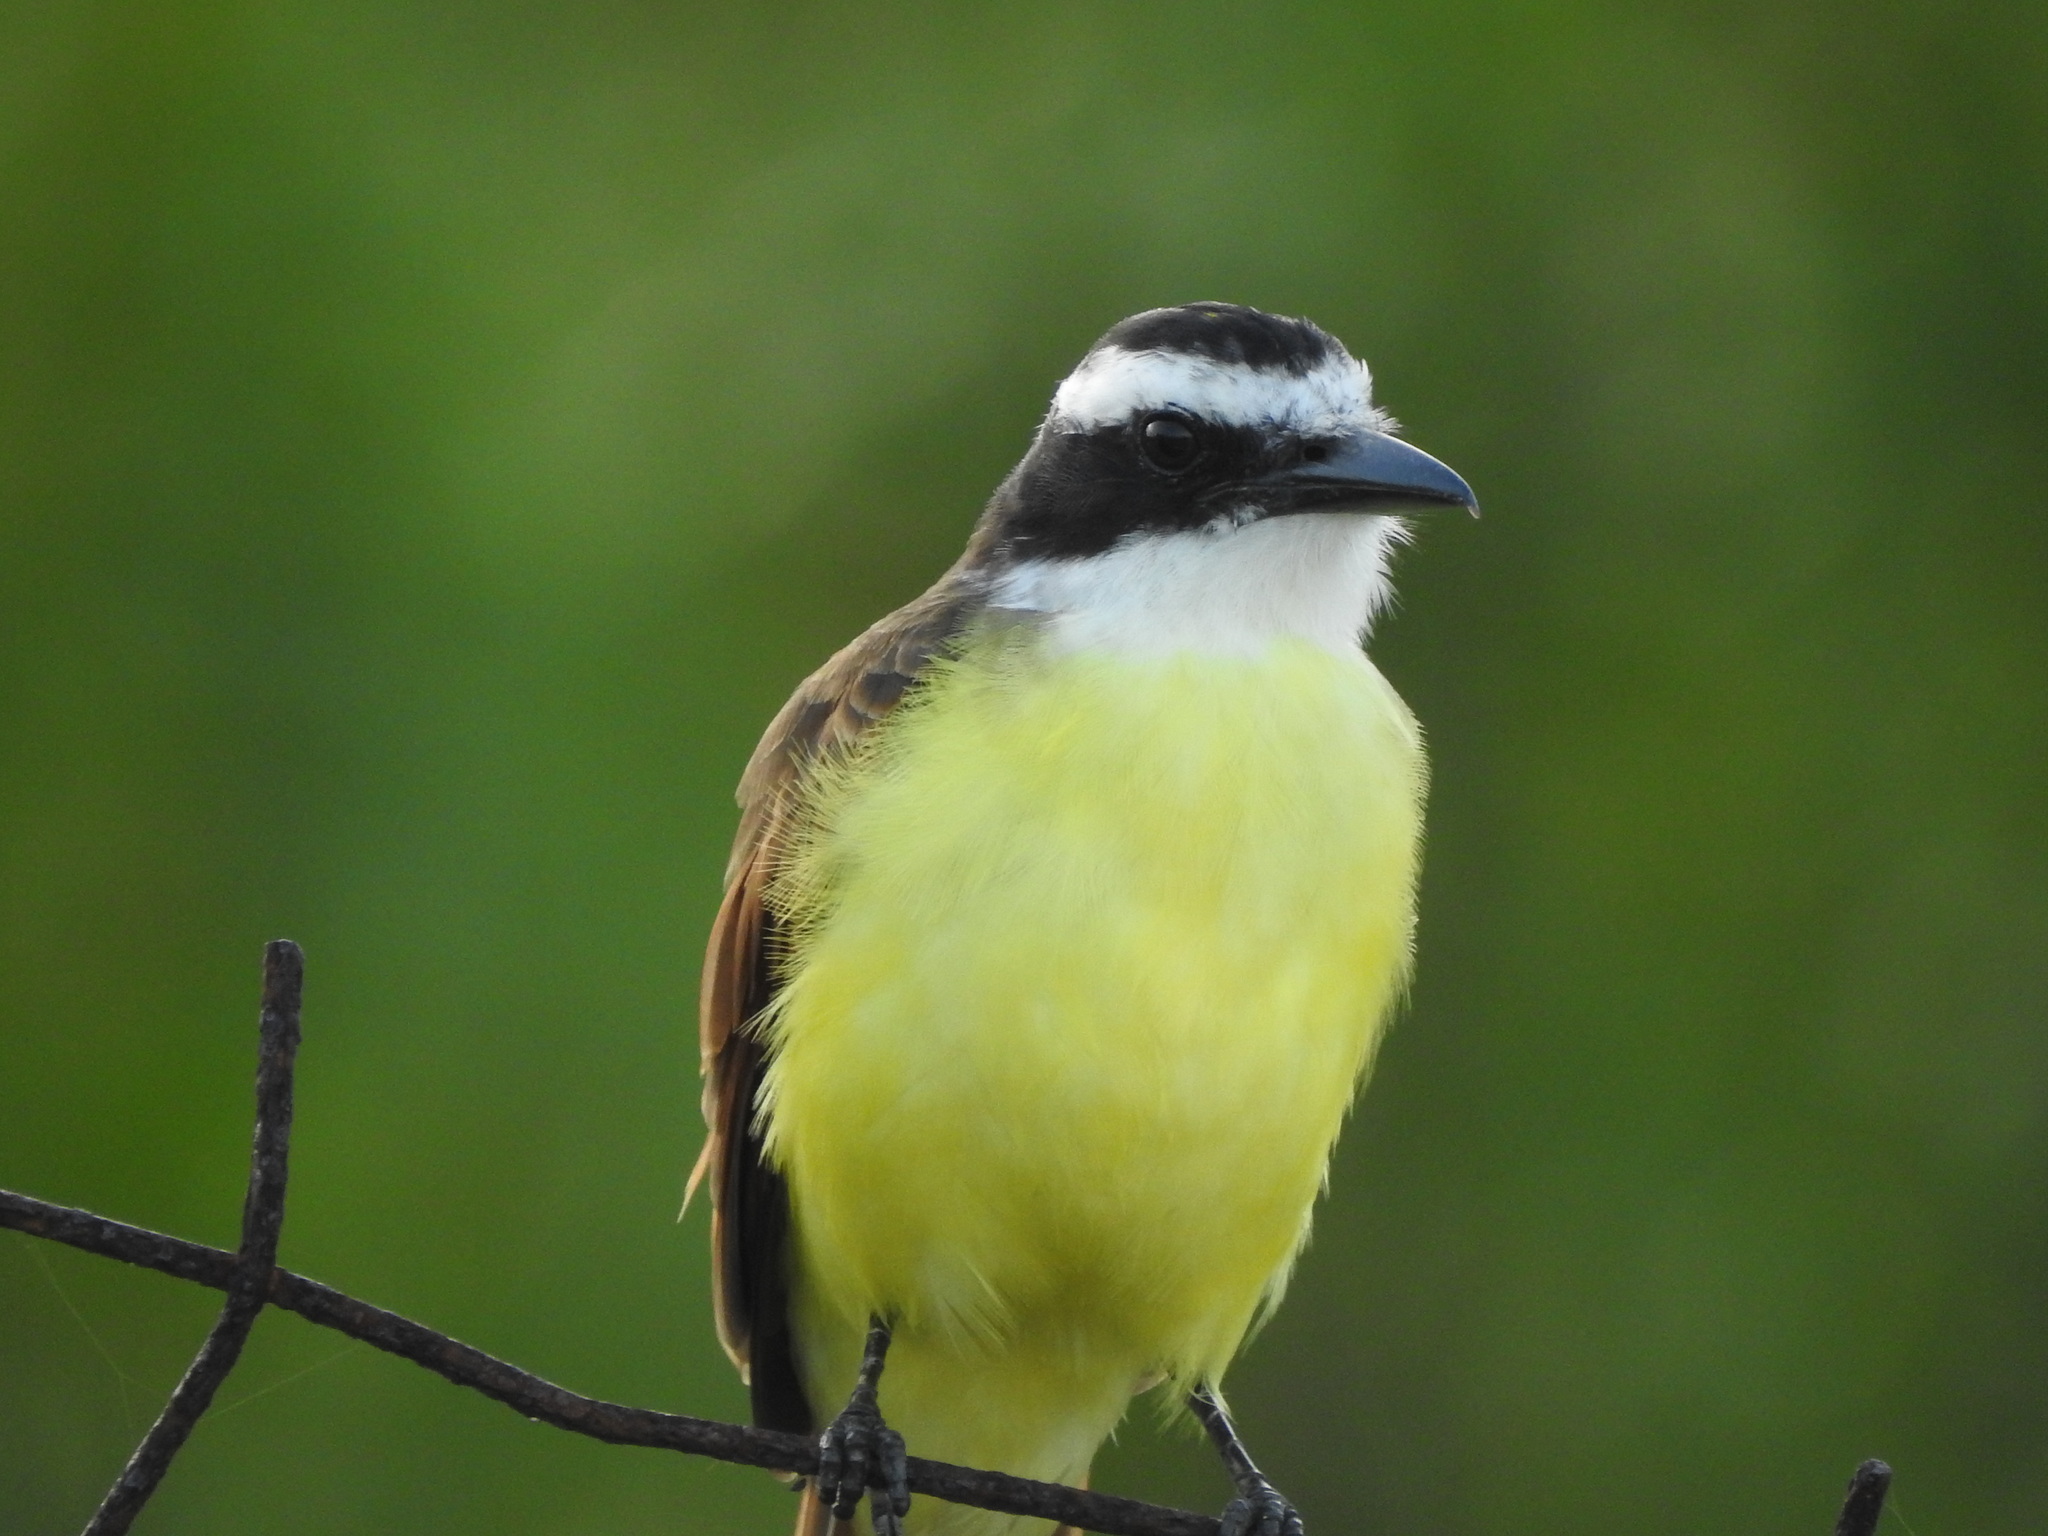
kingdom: Animalia
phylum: Chordata
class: Aves
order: Passeriformes
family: Tyrannidae
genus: Pitangus
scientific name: Pitangus sulphuratus
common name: Great kiskadee
